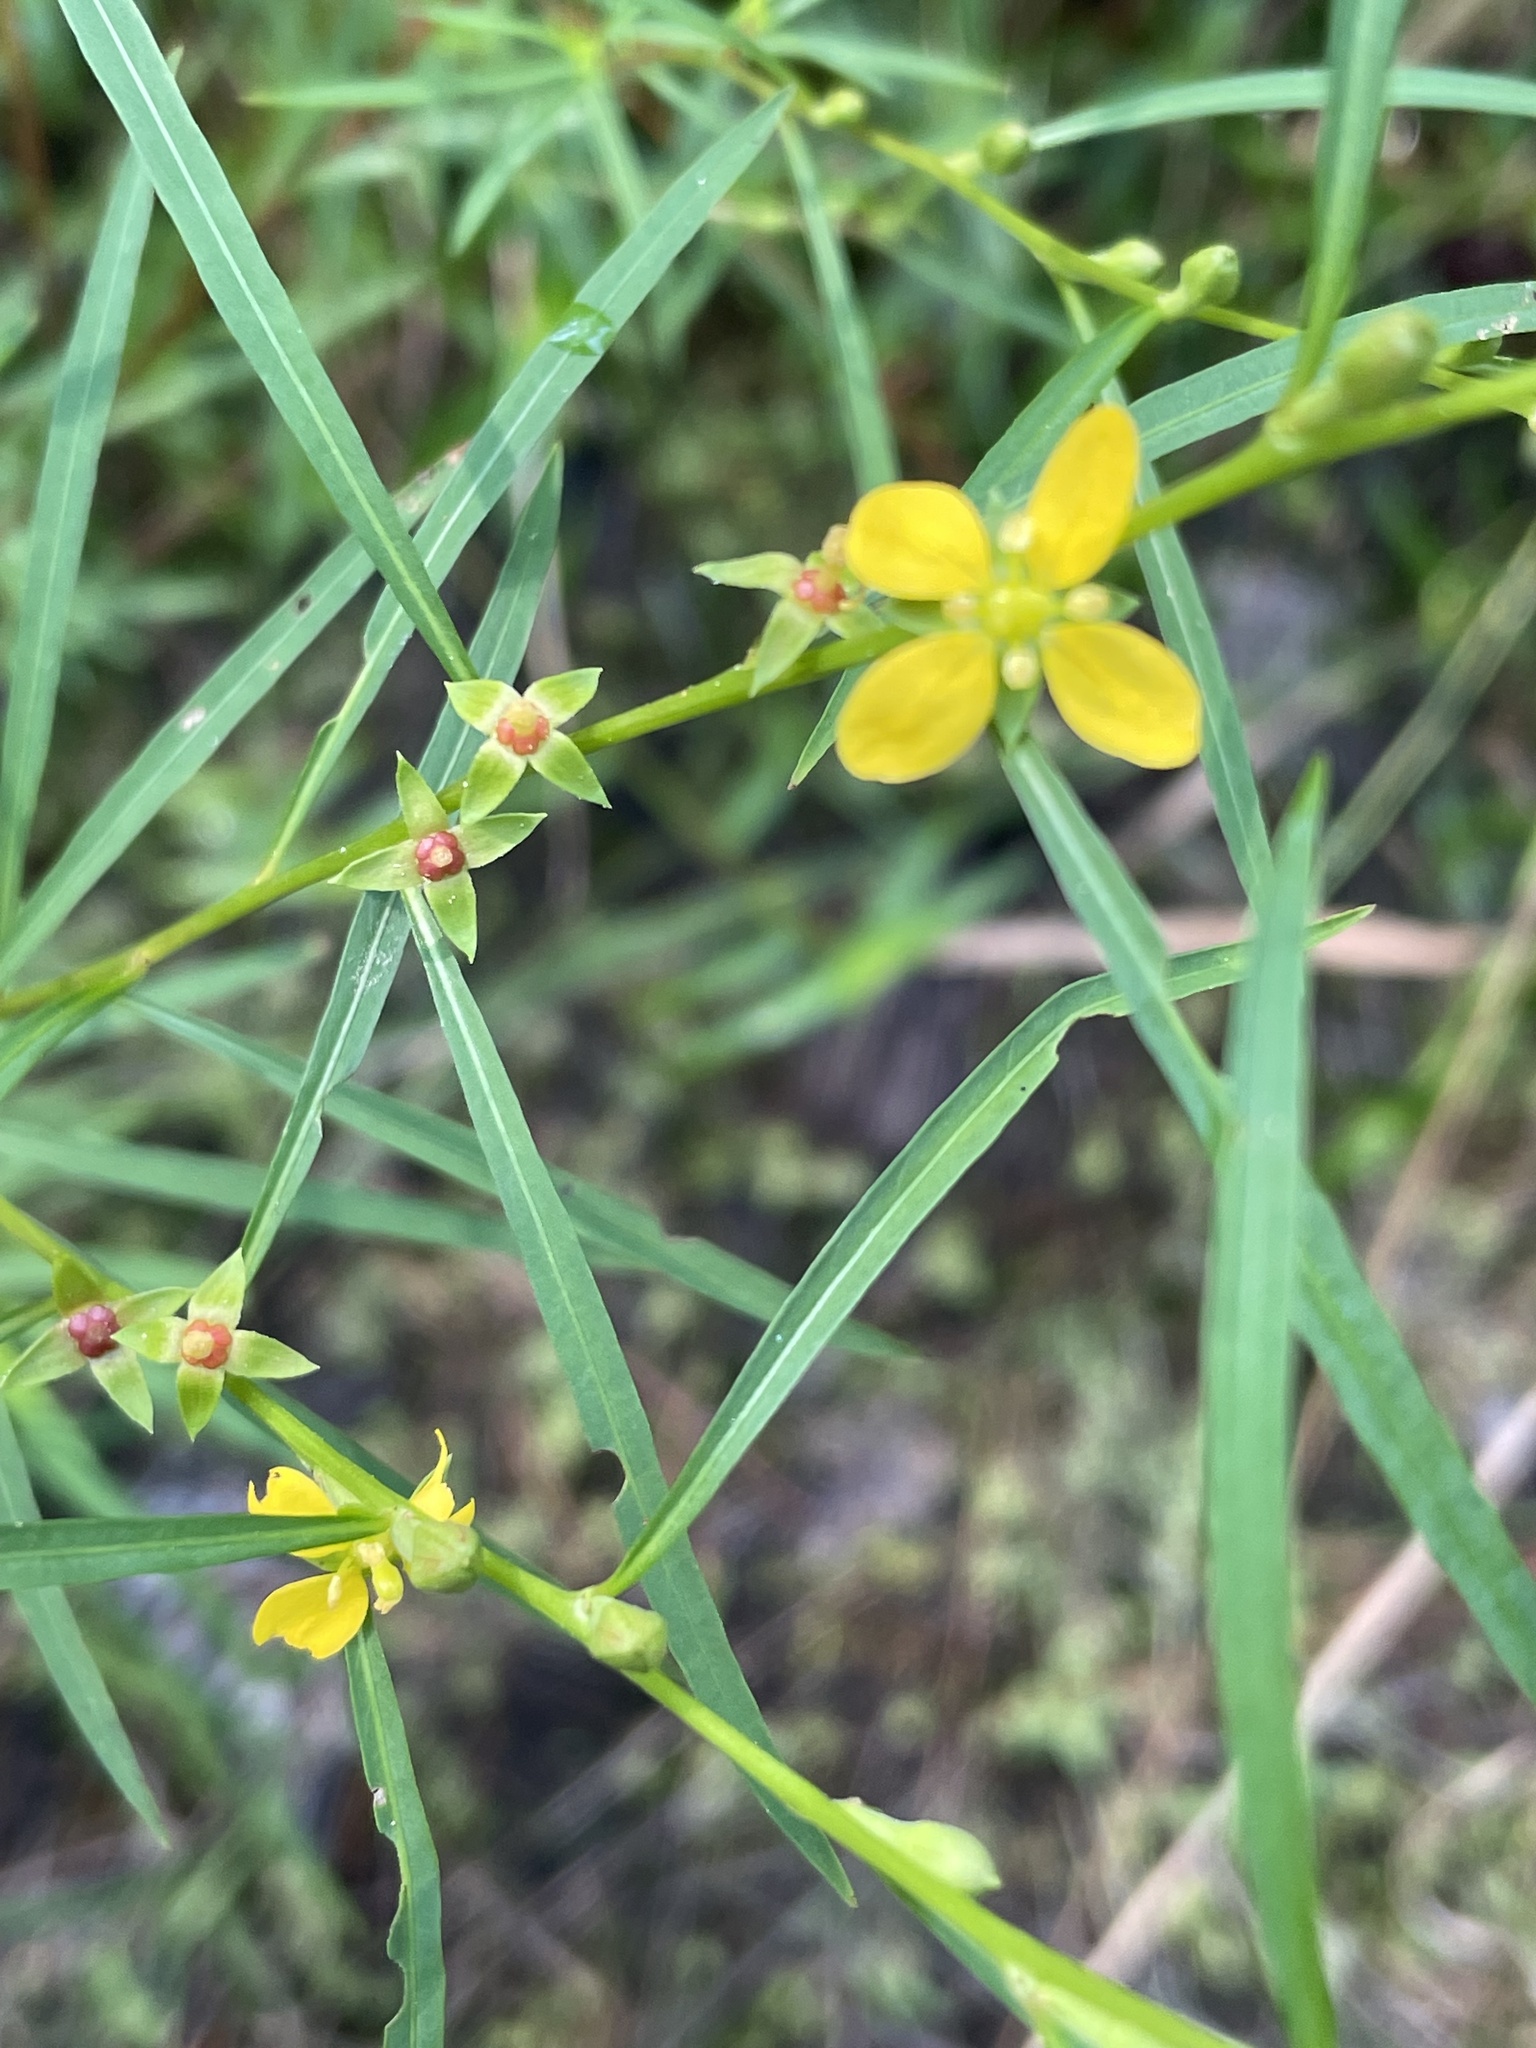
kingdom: Plantae
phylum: Tracheophyta
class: Magnoliopsida
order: Myrtales
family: Onagraceae
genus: Ludwigia
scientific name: Ludwigia linearis
